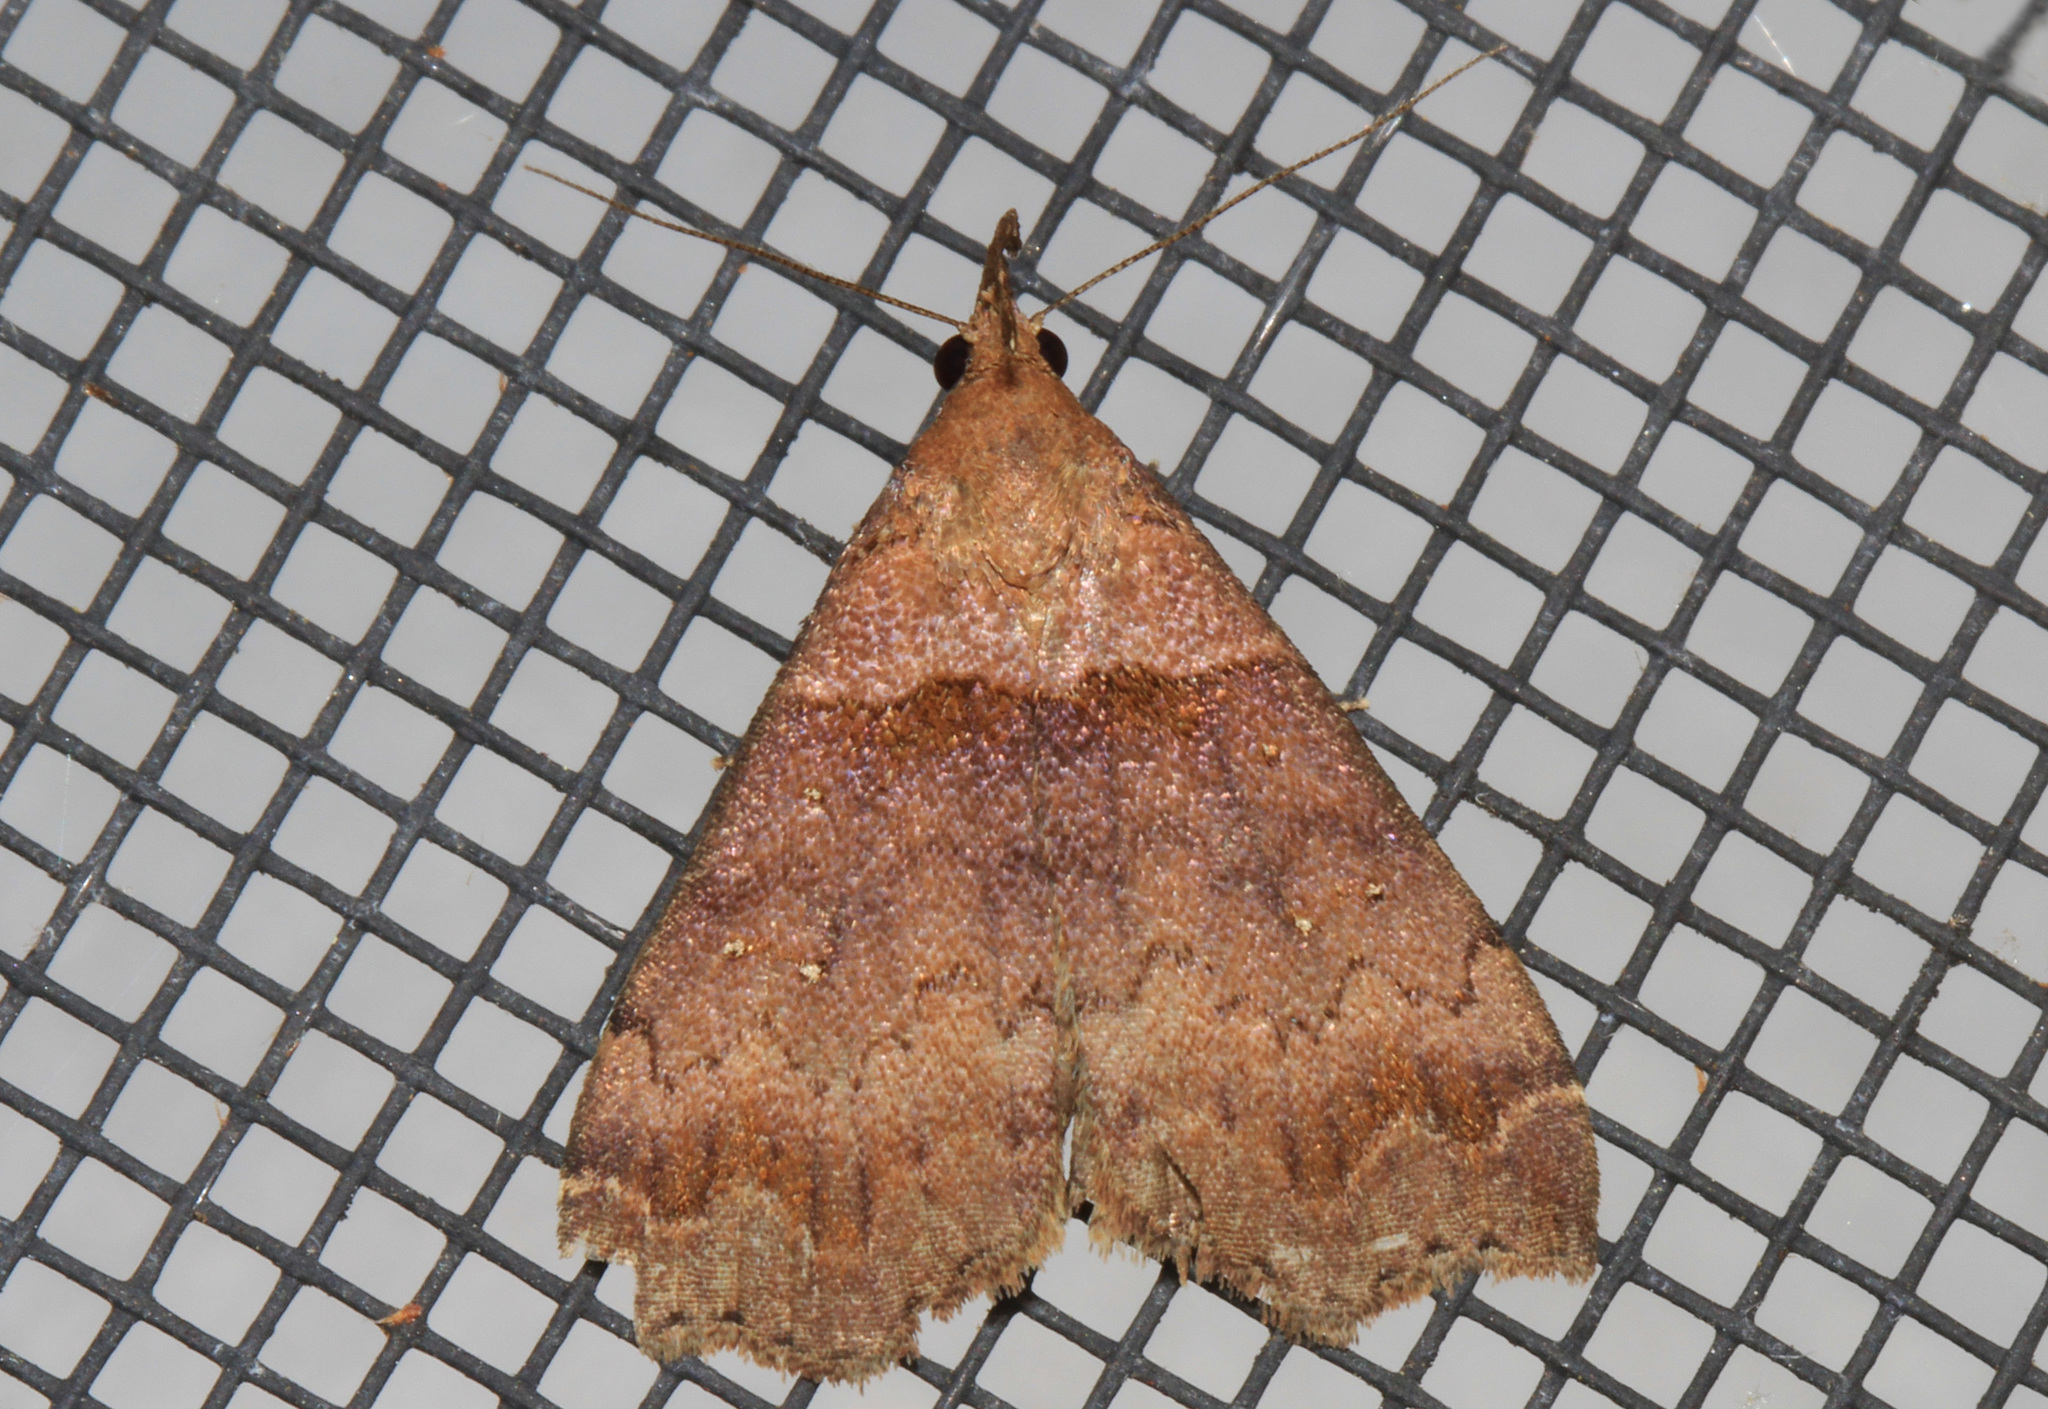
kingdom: Animalia
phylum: Arthropoda
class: Insecta
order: Lepidoptera
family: Erebidae
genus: Lascoria
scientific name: Lascoria ambigualis
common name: Ambiguous moth
